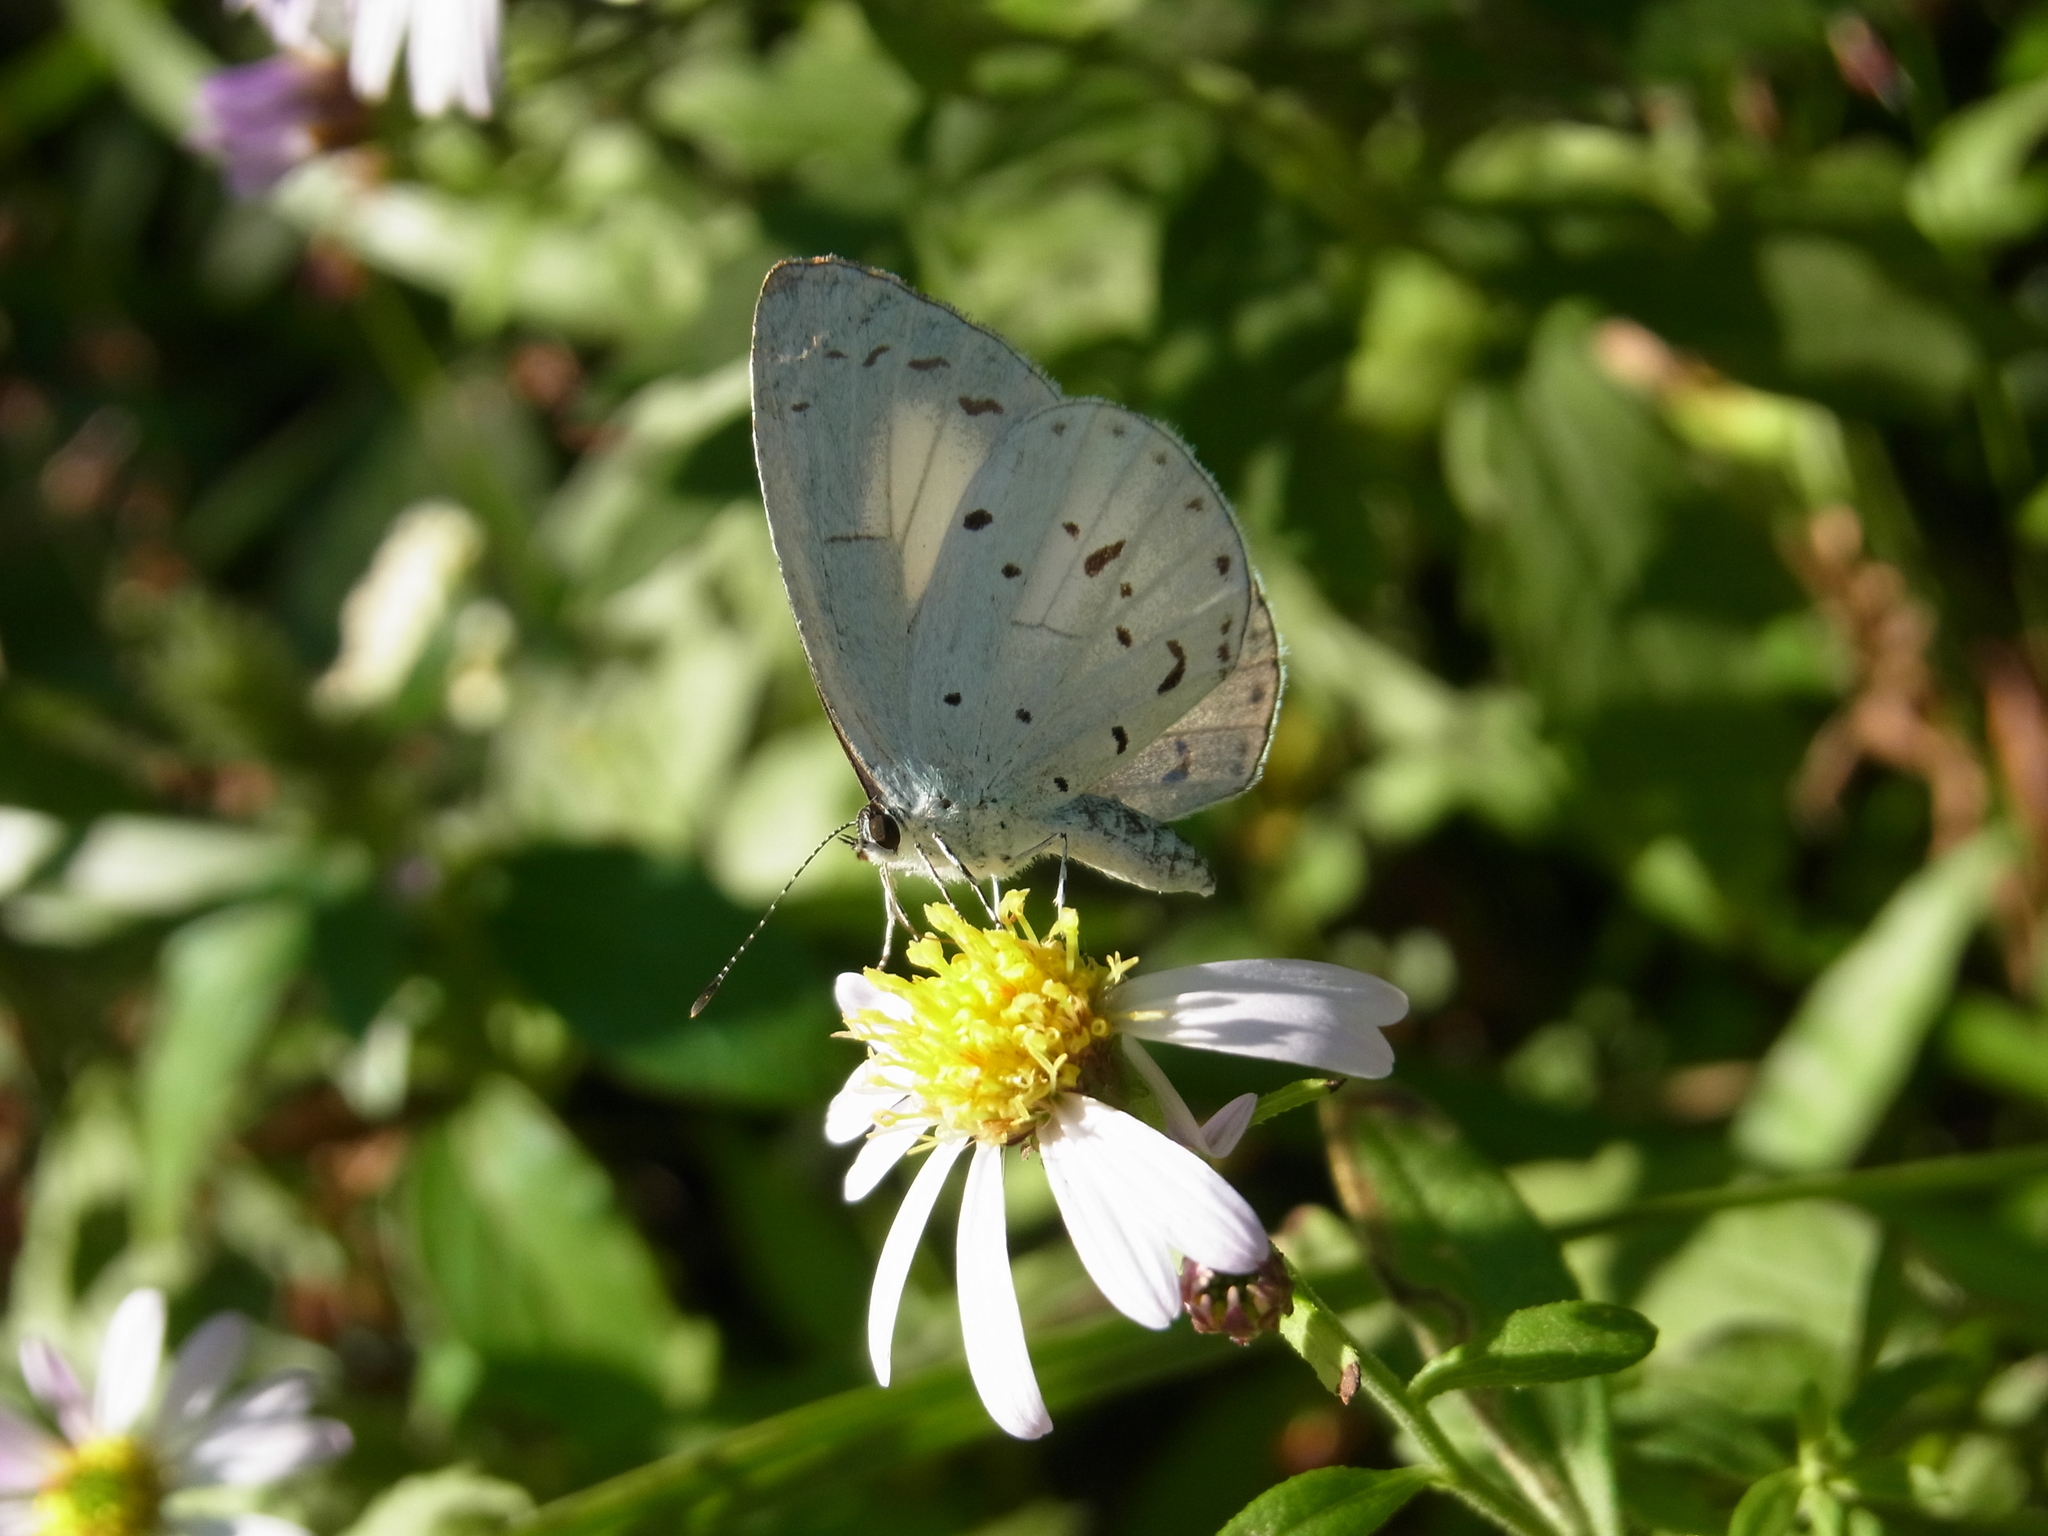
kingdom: Animalia
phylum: Arthropoda
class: Insecta
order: Lepidoptera
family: Lycaenidae
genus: Udara
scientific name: Udara albocaerulea
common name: Albocerulean
